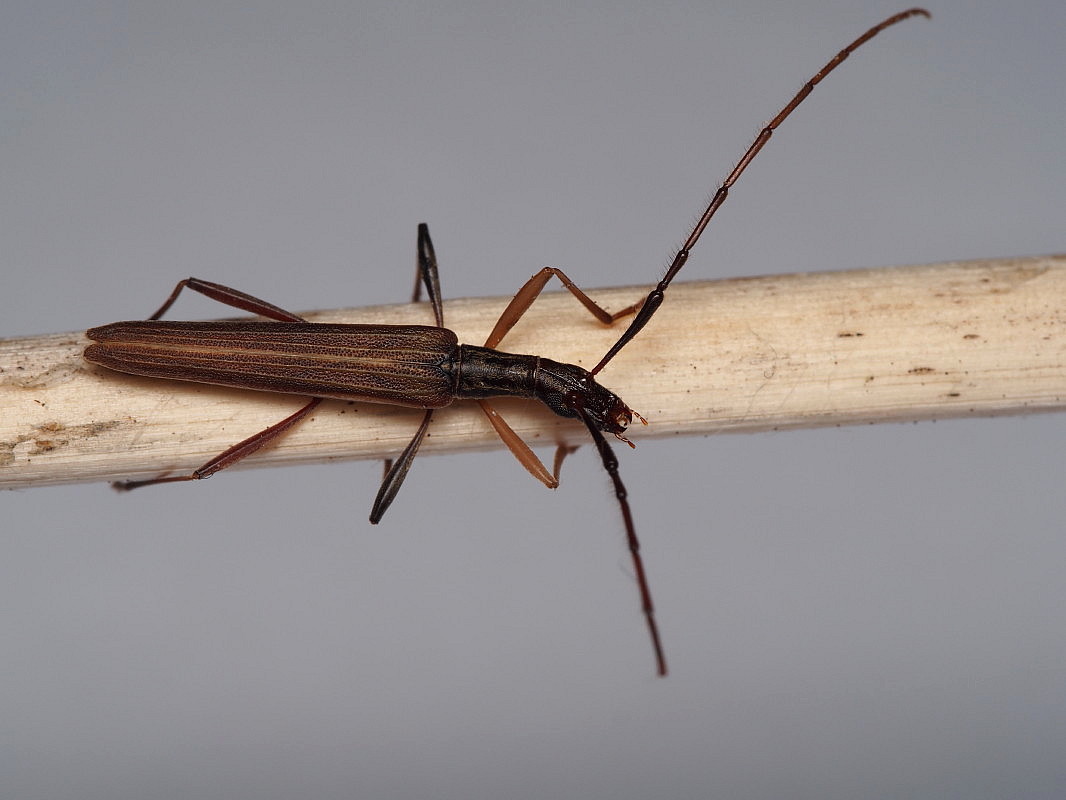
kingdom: Animalia
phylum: Arthropoda
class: Insecta
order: Coleoptera
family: Cerambycidae
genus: Stenopotes
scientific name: Stenopotes pallidus
